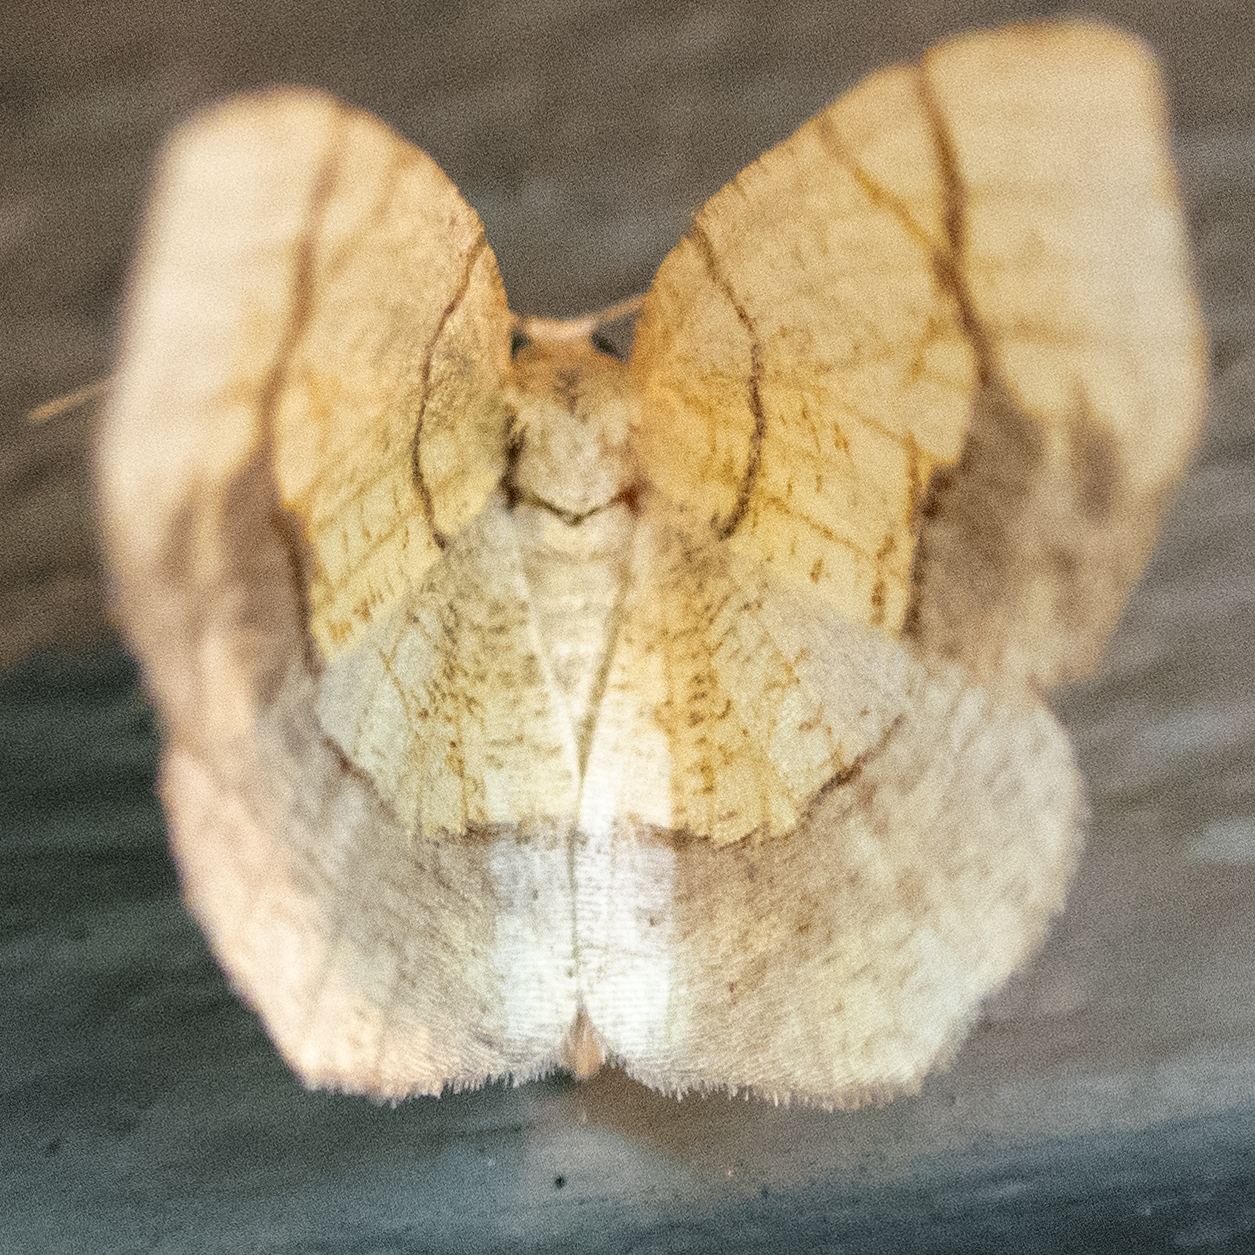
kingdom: Animalia
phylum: Arthropoda
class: Insecta
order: Lepidoptera
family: Geometridae
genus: Nematocampa
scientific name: Nematocampa resistaria
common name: Horned spanworm moth
